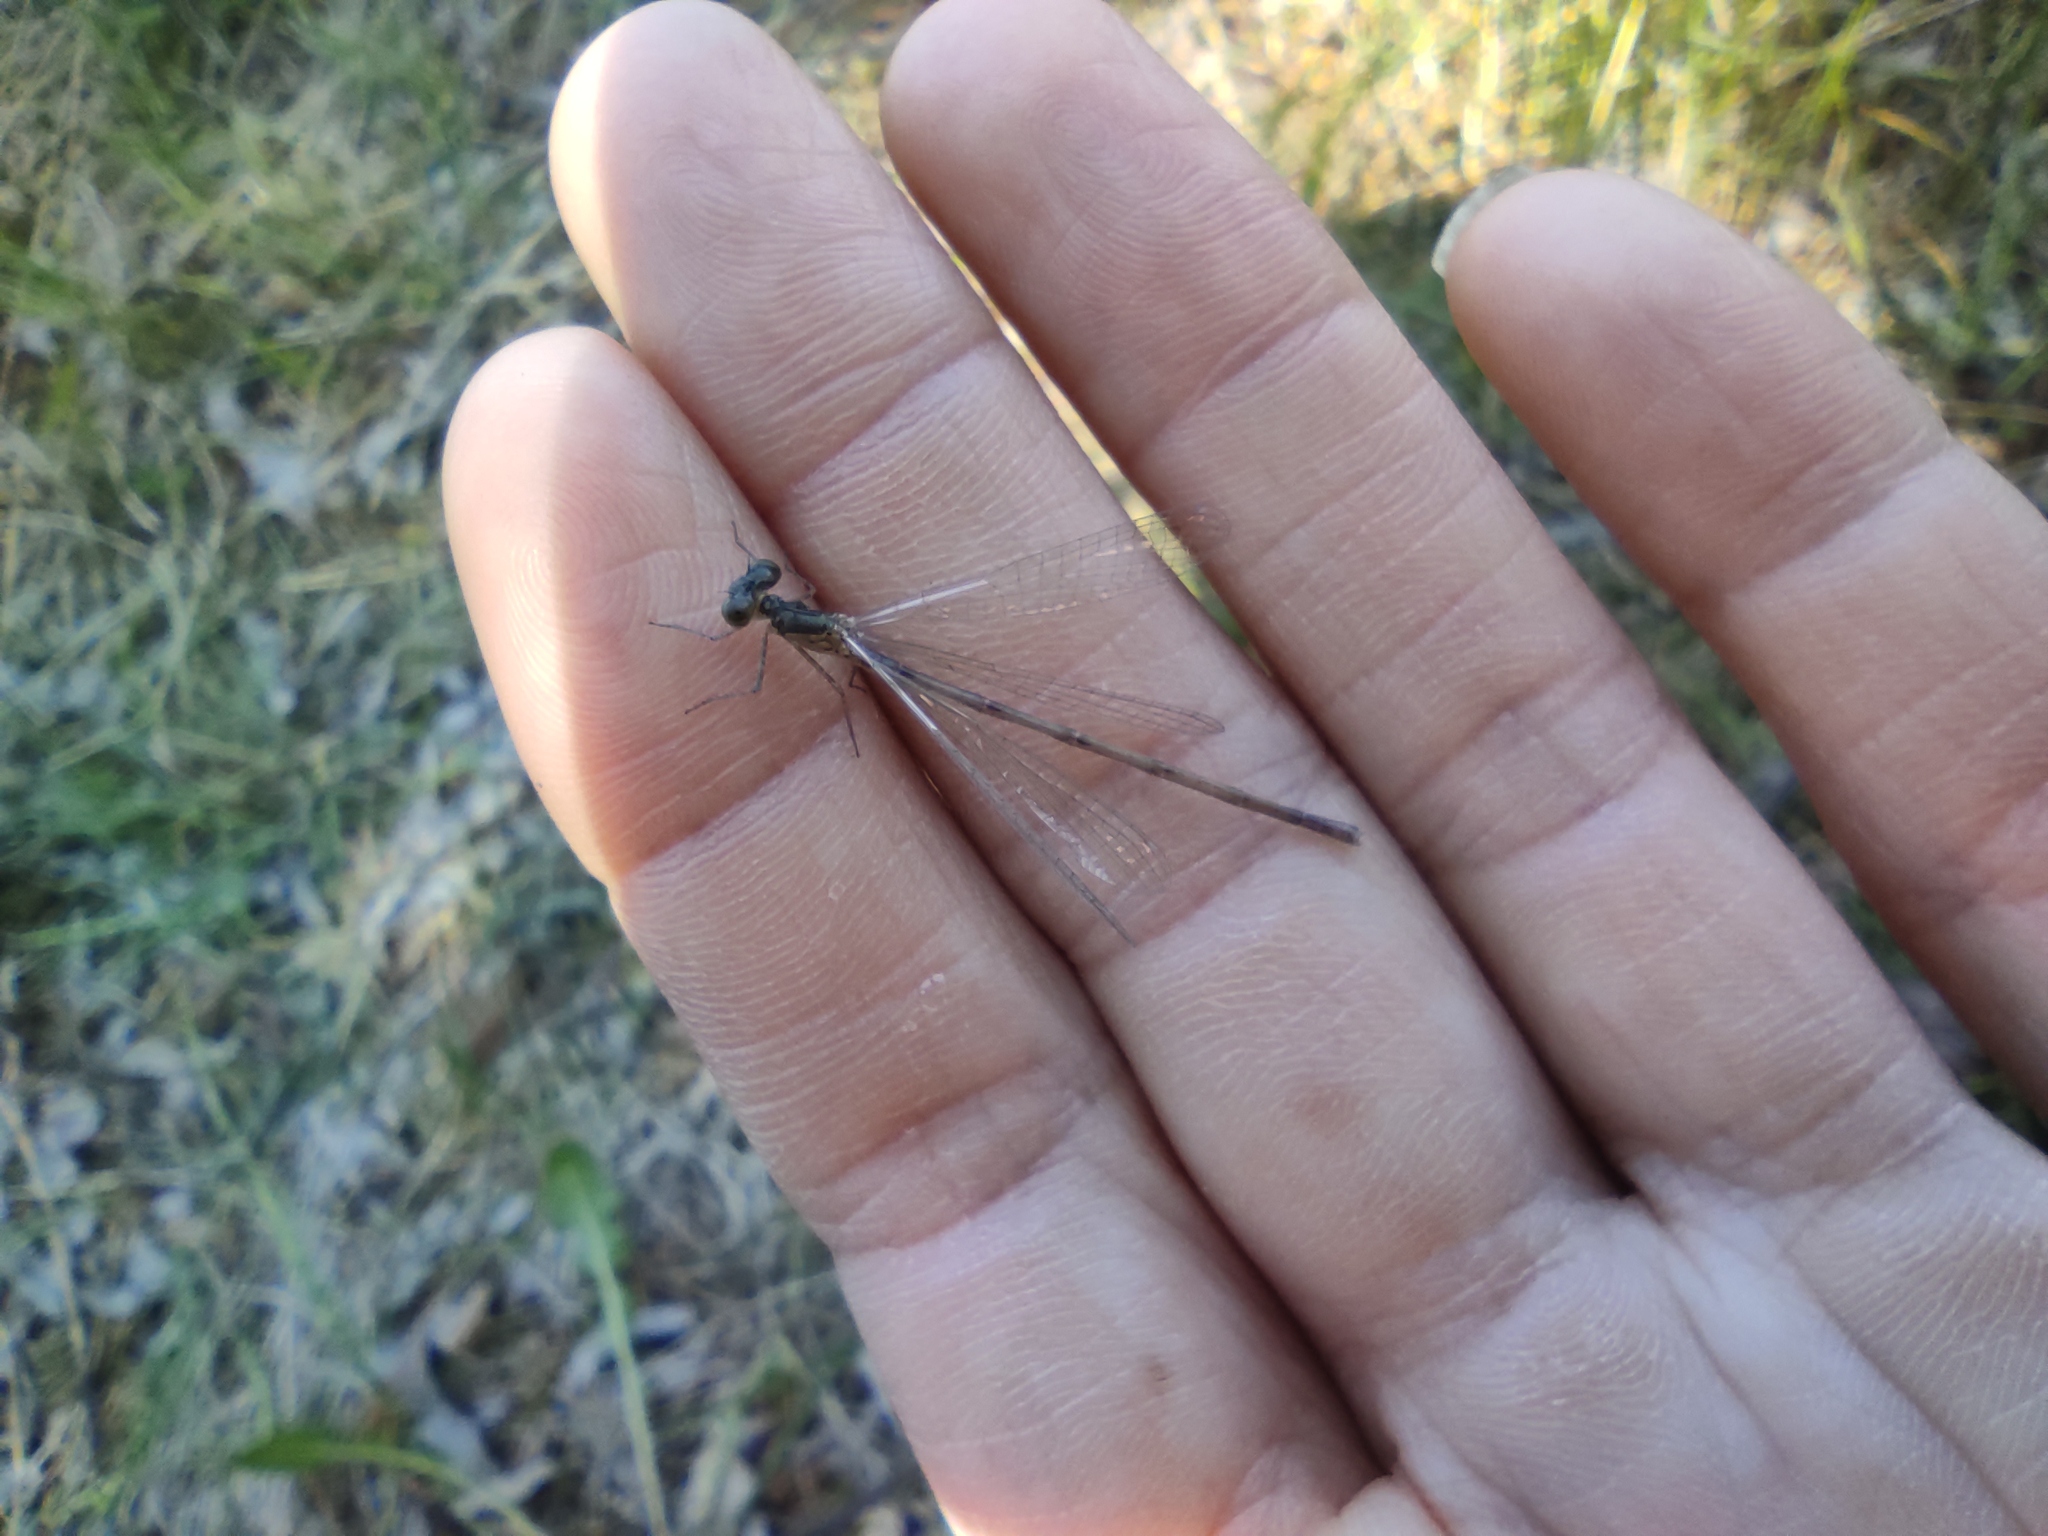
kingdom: Animalia
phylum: Arthropoda
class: Insecta
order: Odonata
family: Coenagrionidae
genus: Coenagrion
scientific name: Coenagrion pulchellum
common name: Variable bluet
